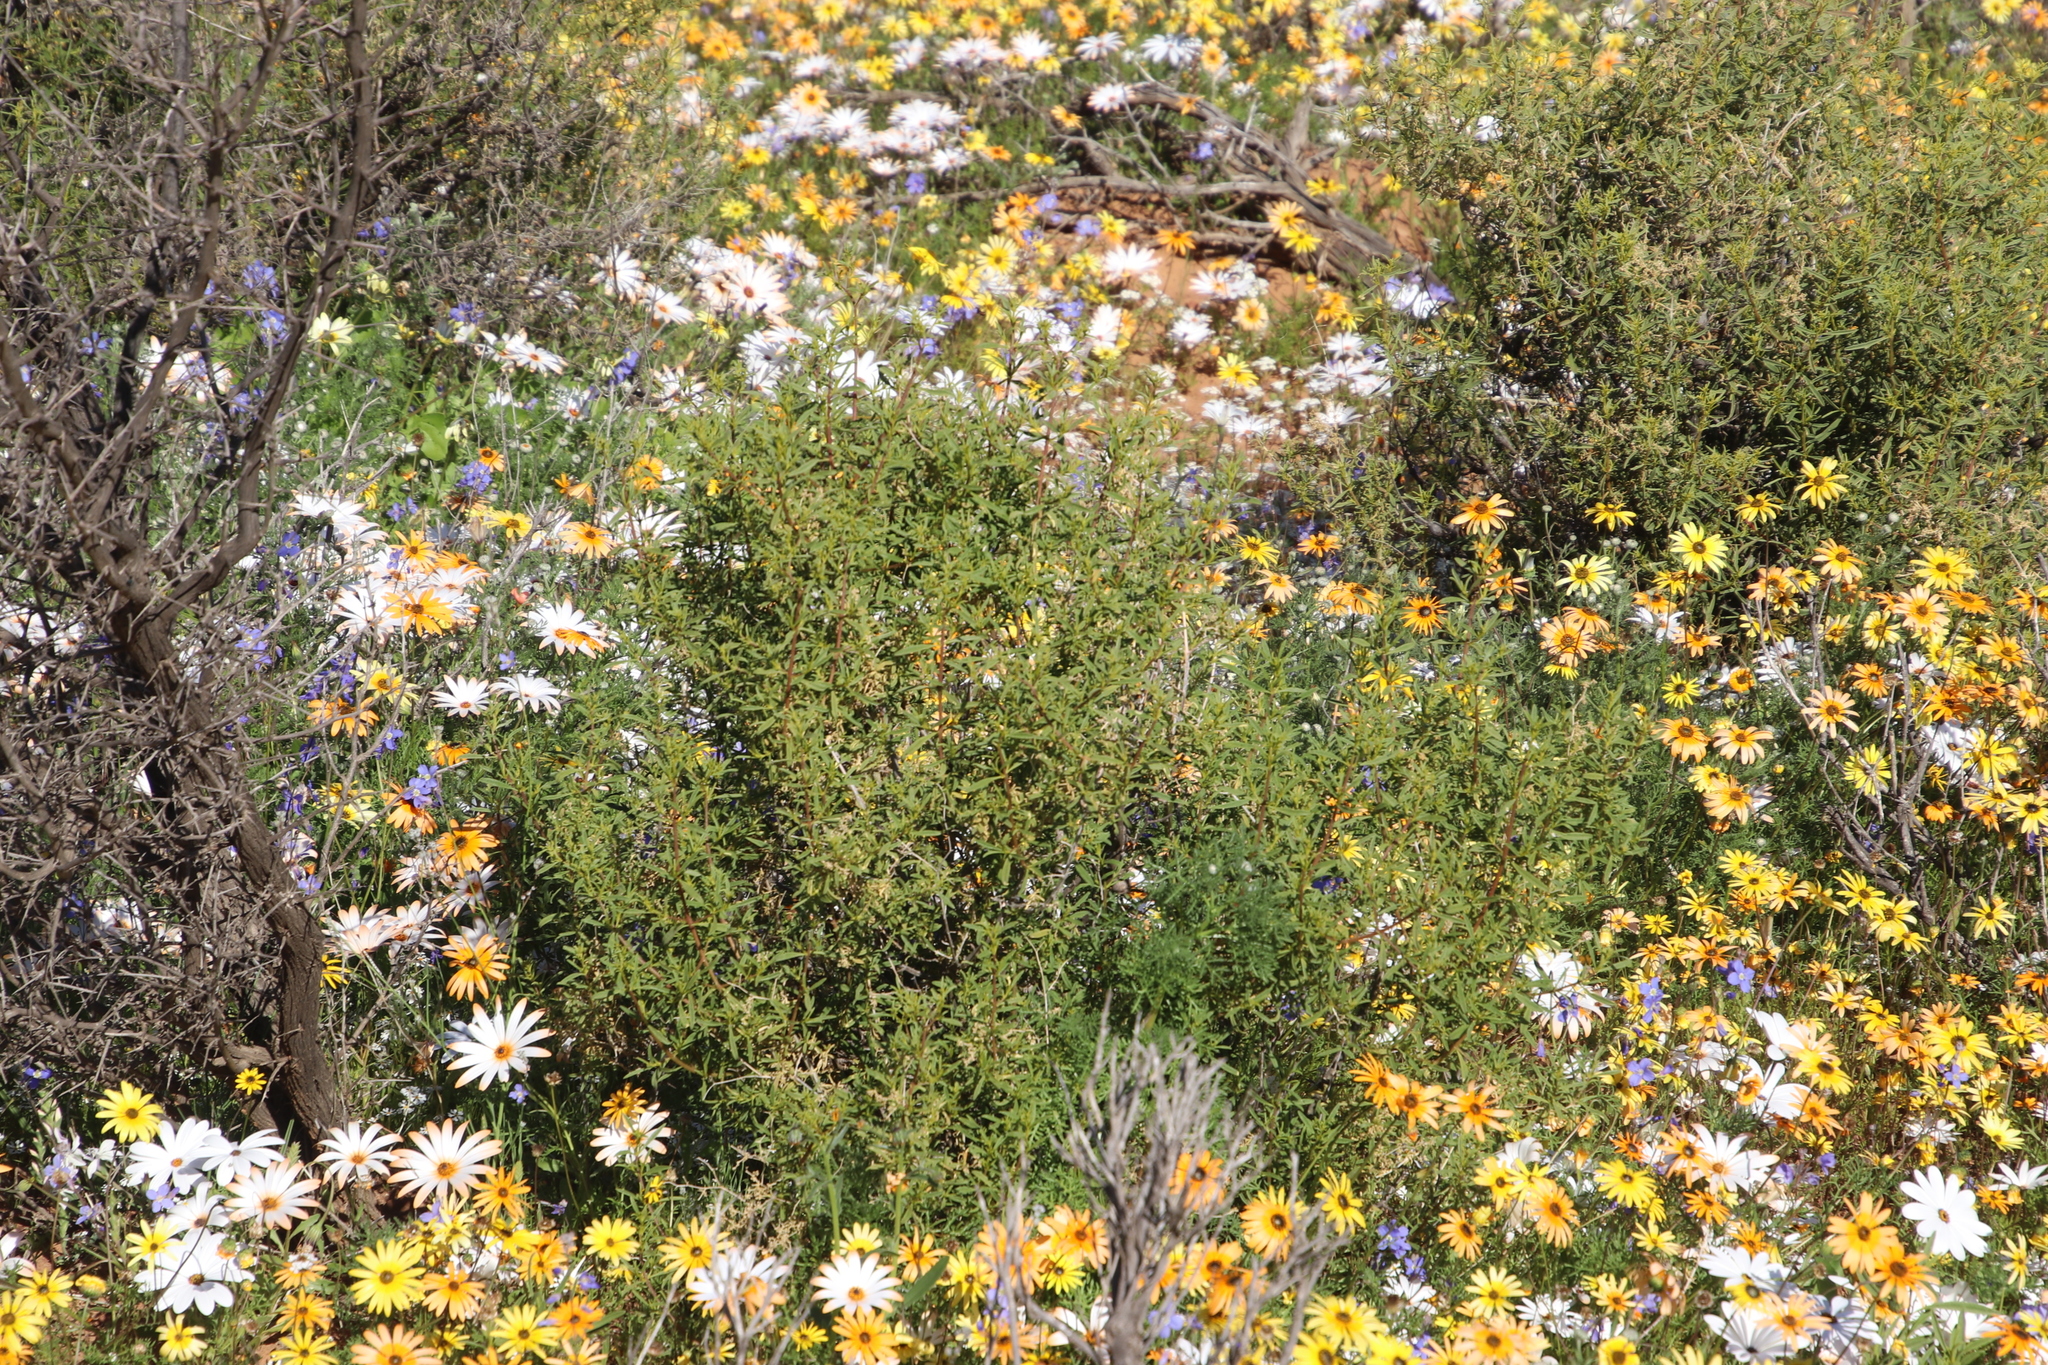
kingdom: Plantae
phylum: Tracheophyta
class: Magnoliopsida
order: Caryophyllales
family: Aizoaceae
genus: Aizoon
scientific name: Aizoon africanum
